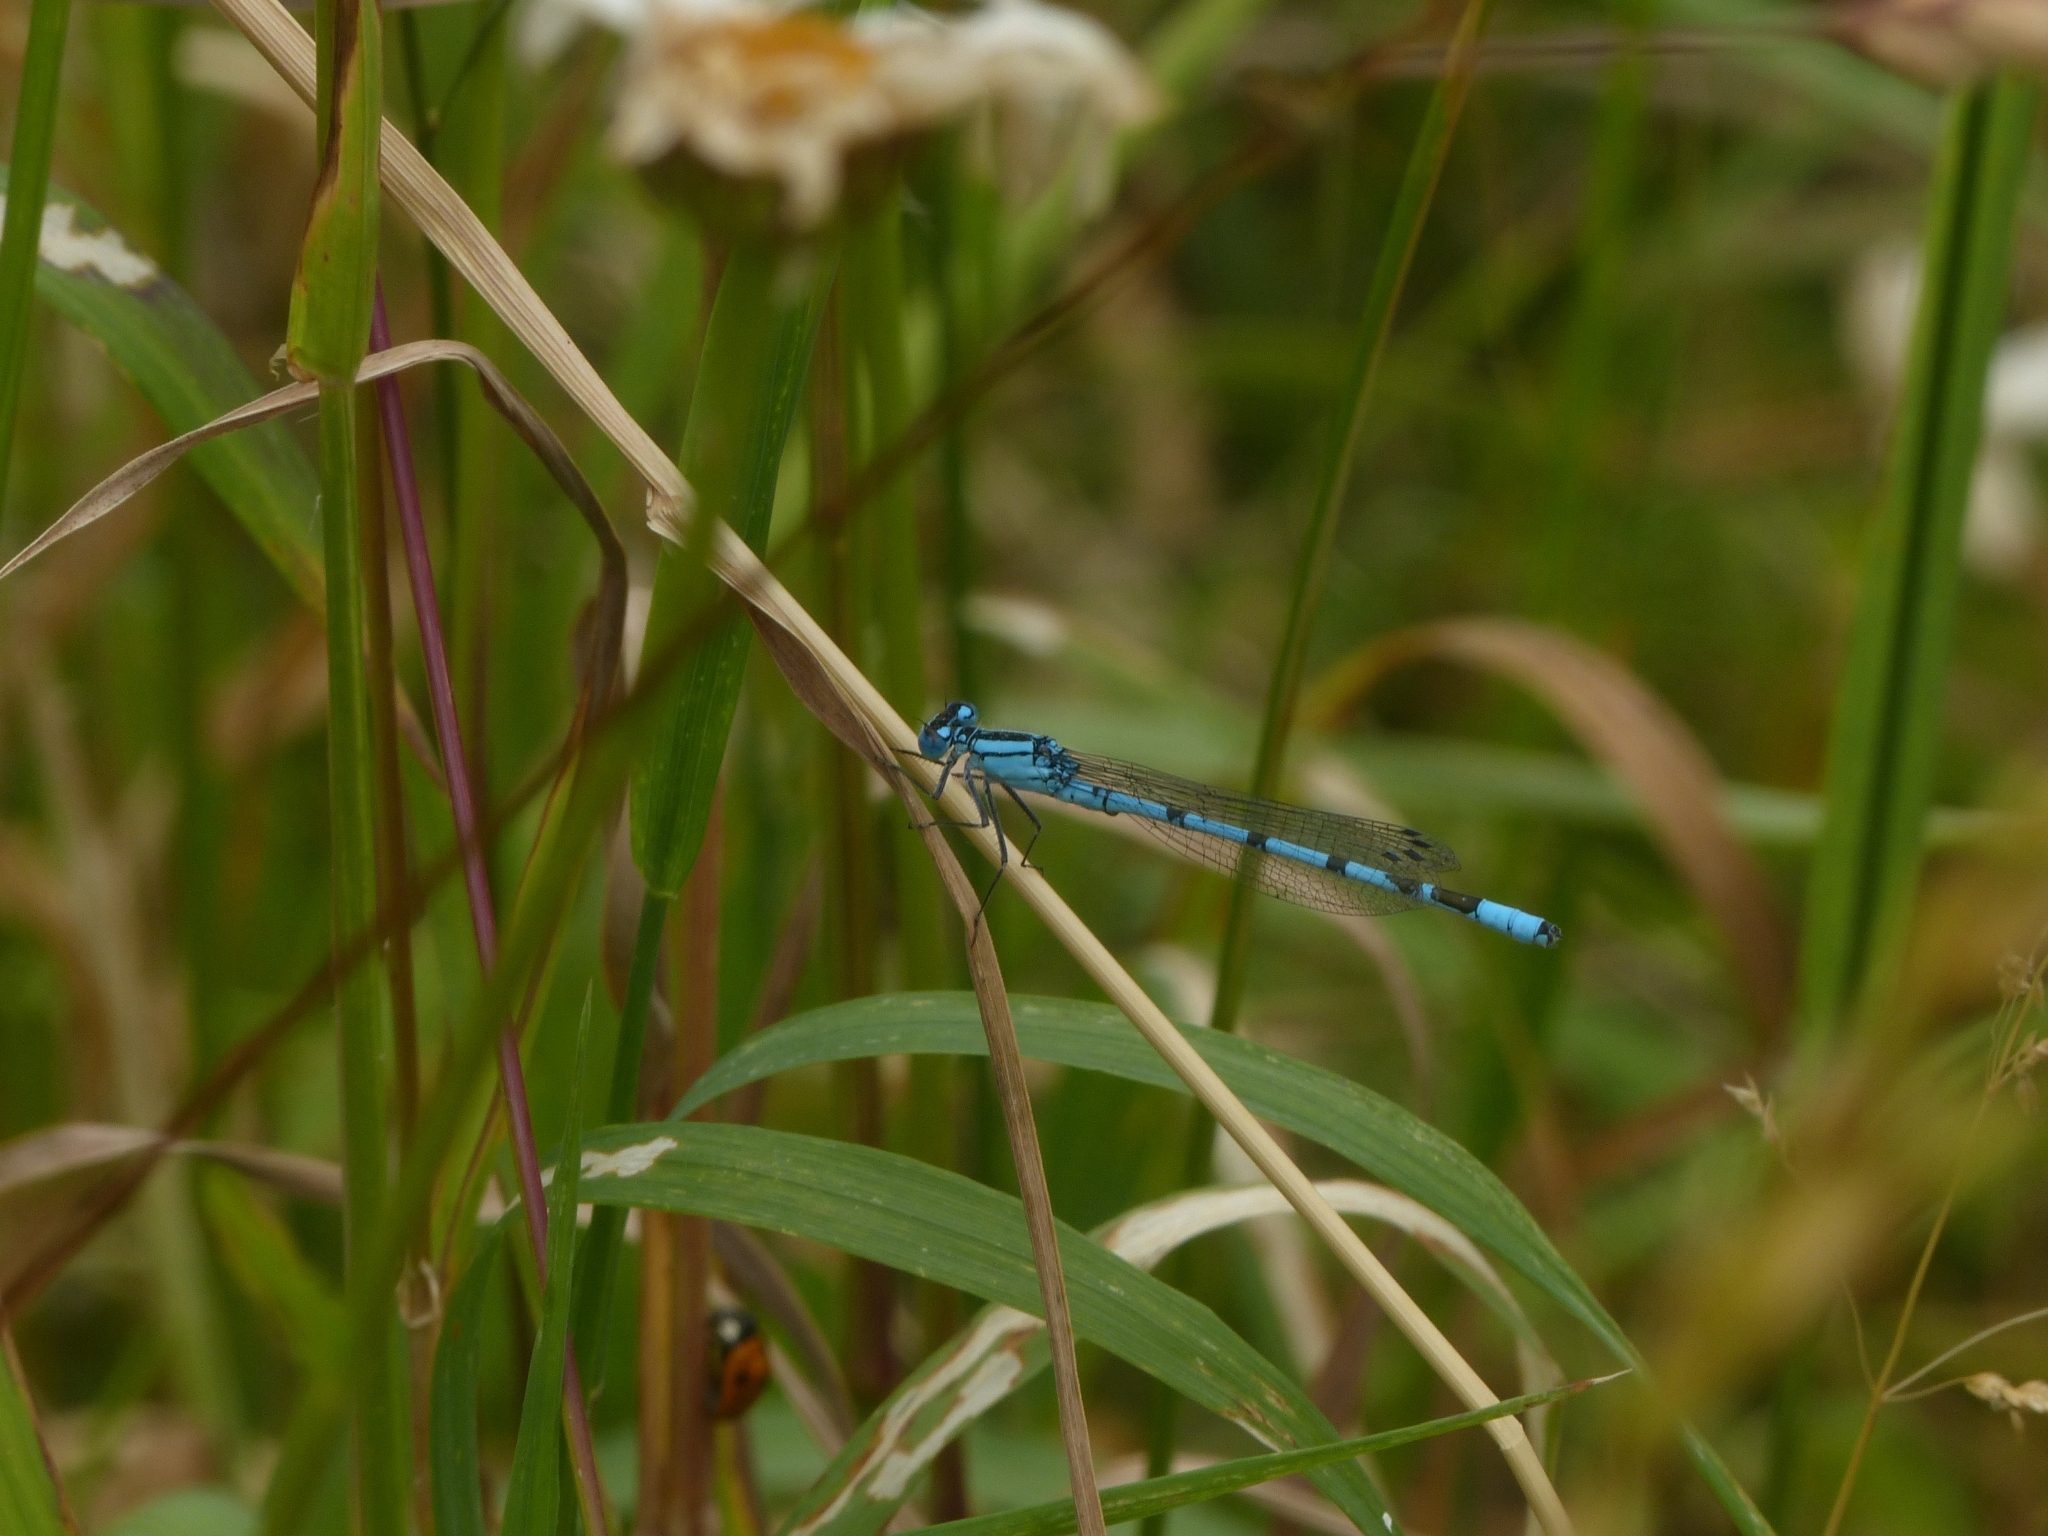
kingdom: Animalia
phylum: Arthropoda
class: Insecta
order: Odonata
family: Coenagrionidae
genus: Enallagma
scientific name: Enallagma cyathigerum
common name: Common blue damselfly
